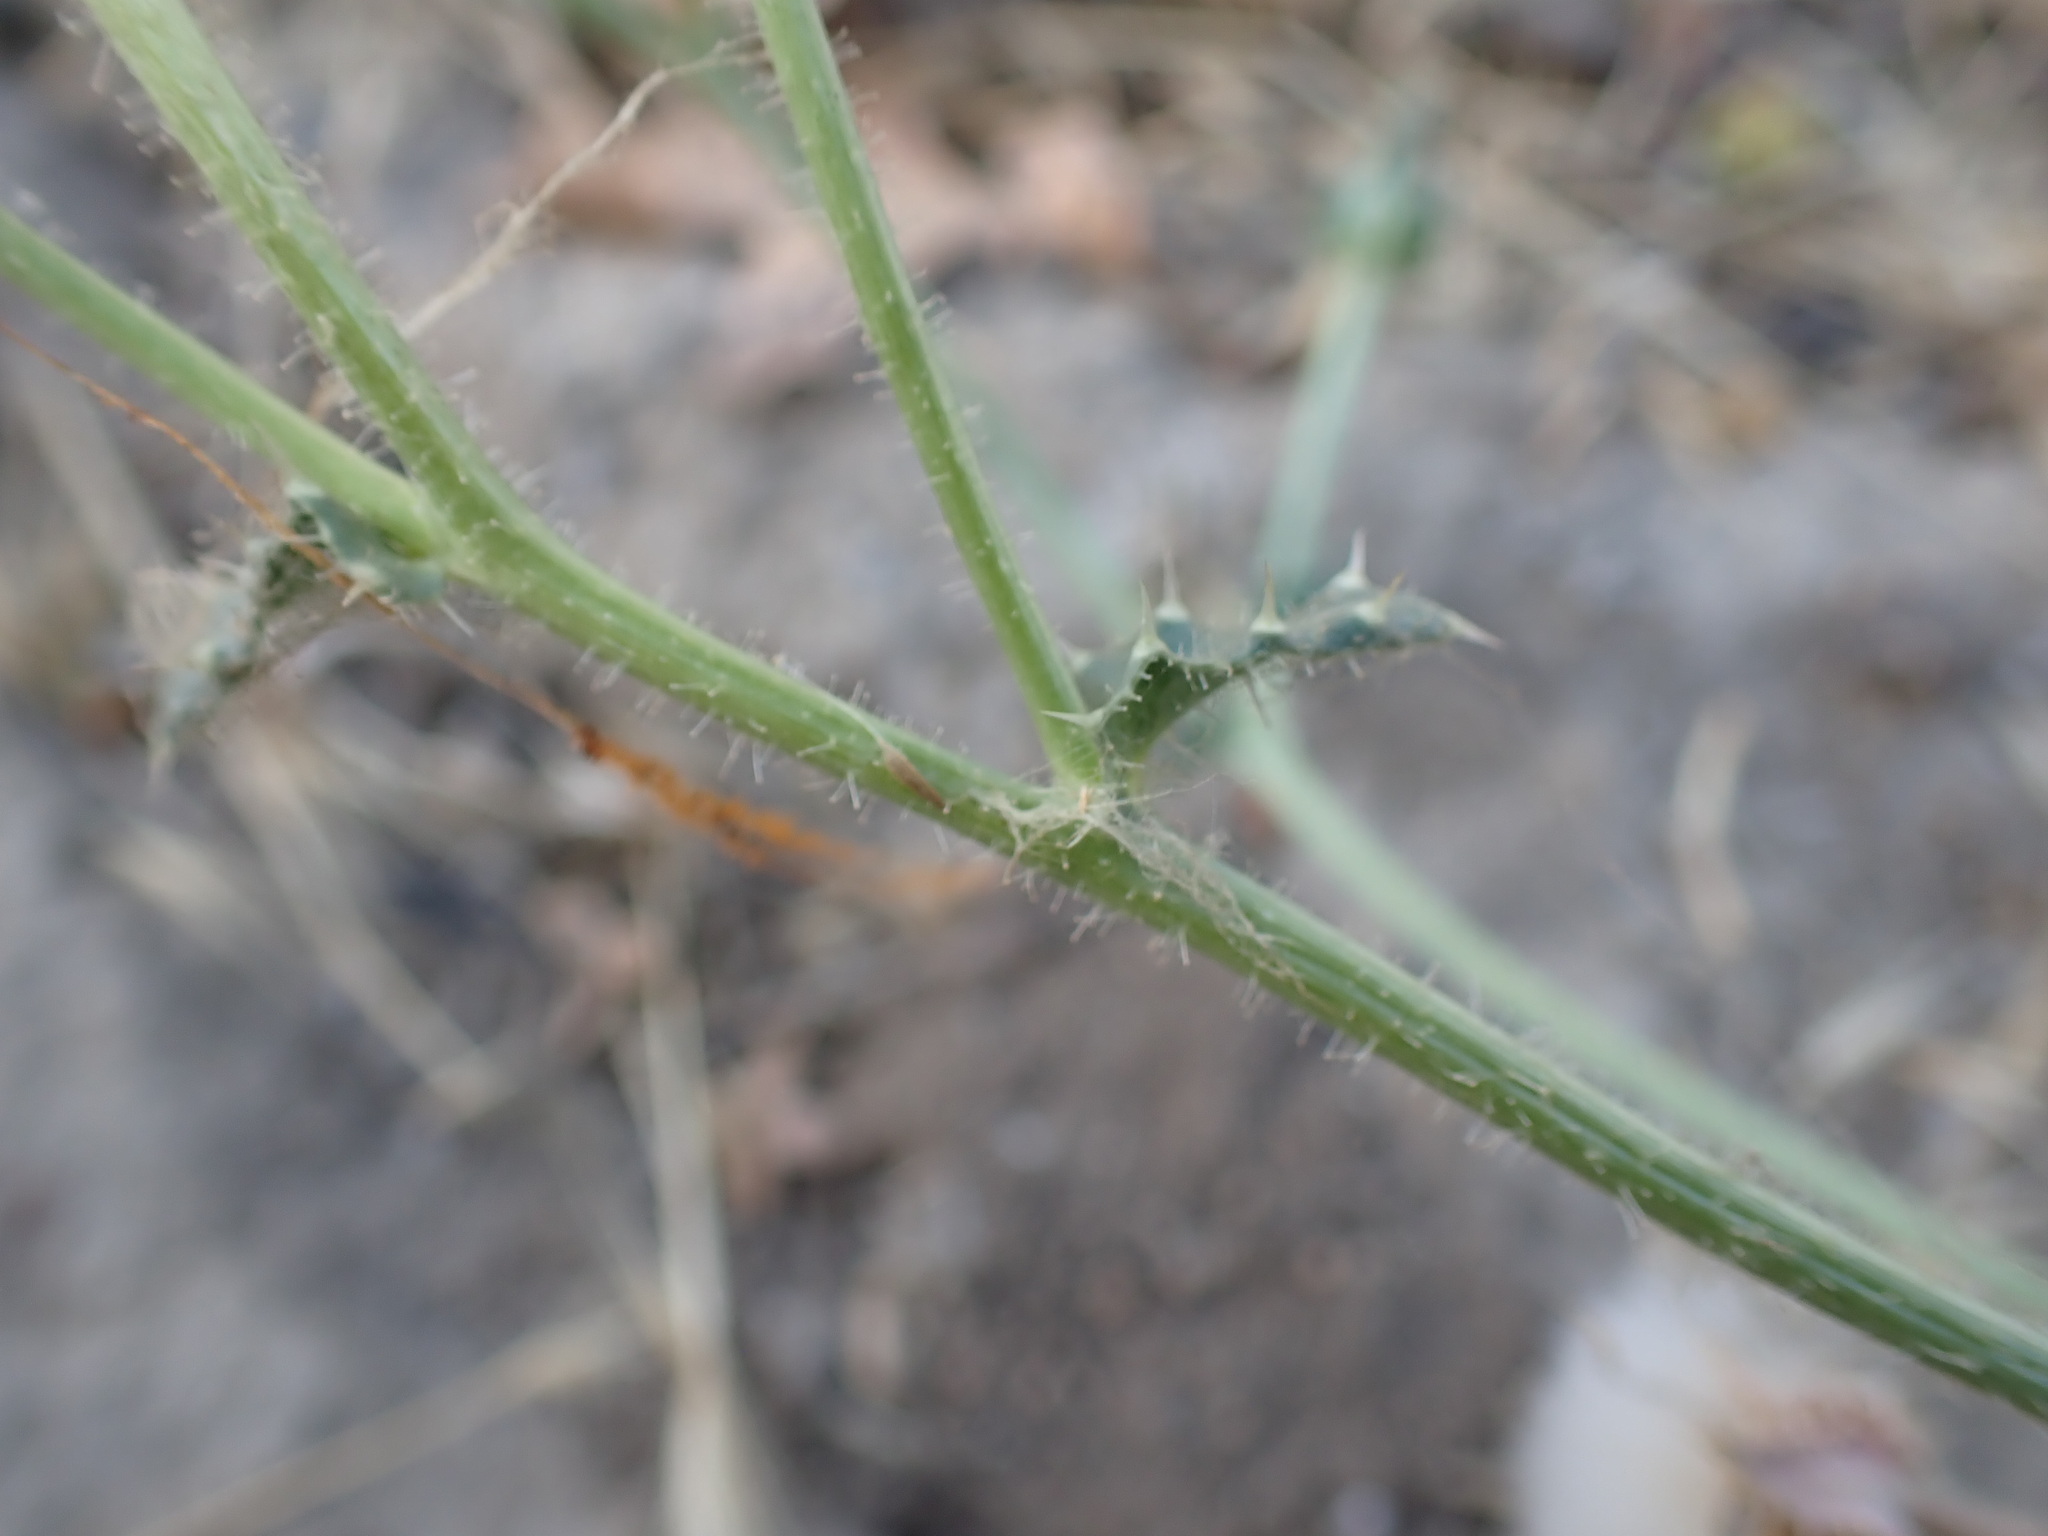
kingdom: Plantae
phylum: Tracheophyta
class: Magnoliopsida
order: Asterales
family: Asteraceae
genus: Helminthotheca
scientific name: Helminthotheca echioides
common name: Ox-tongue
